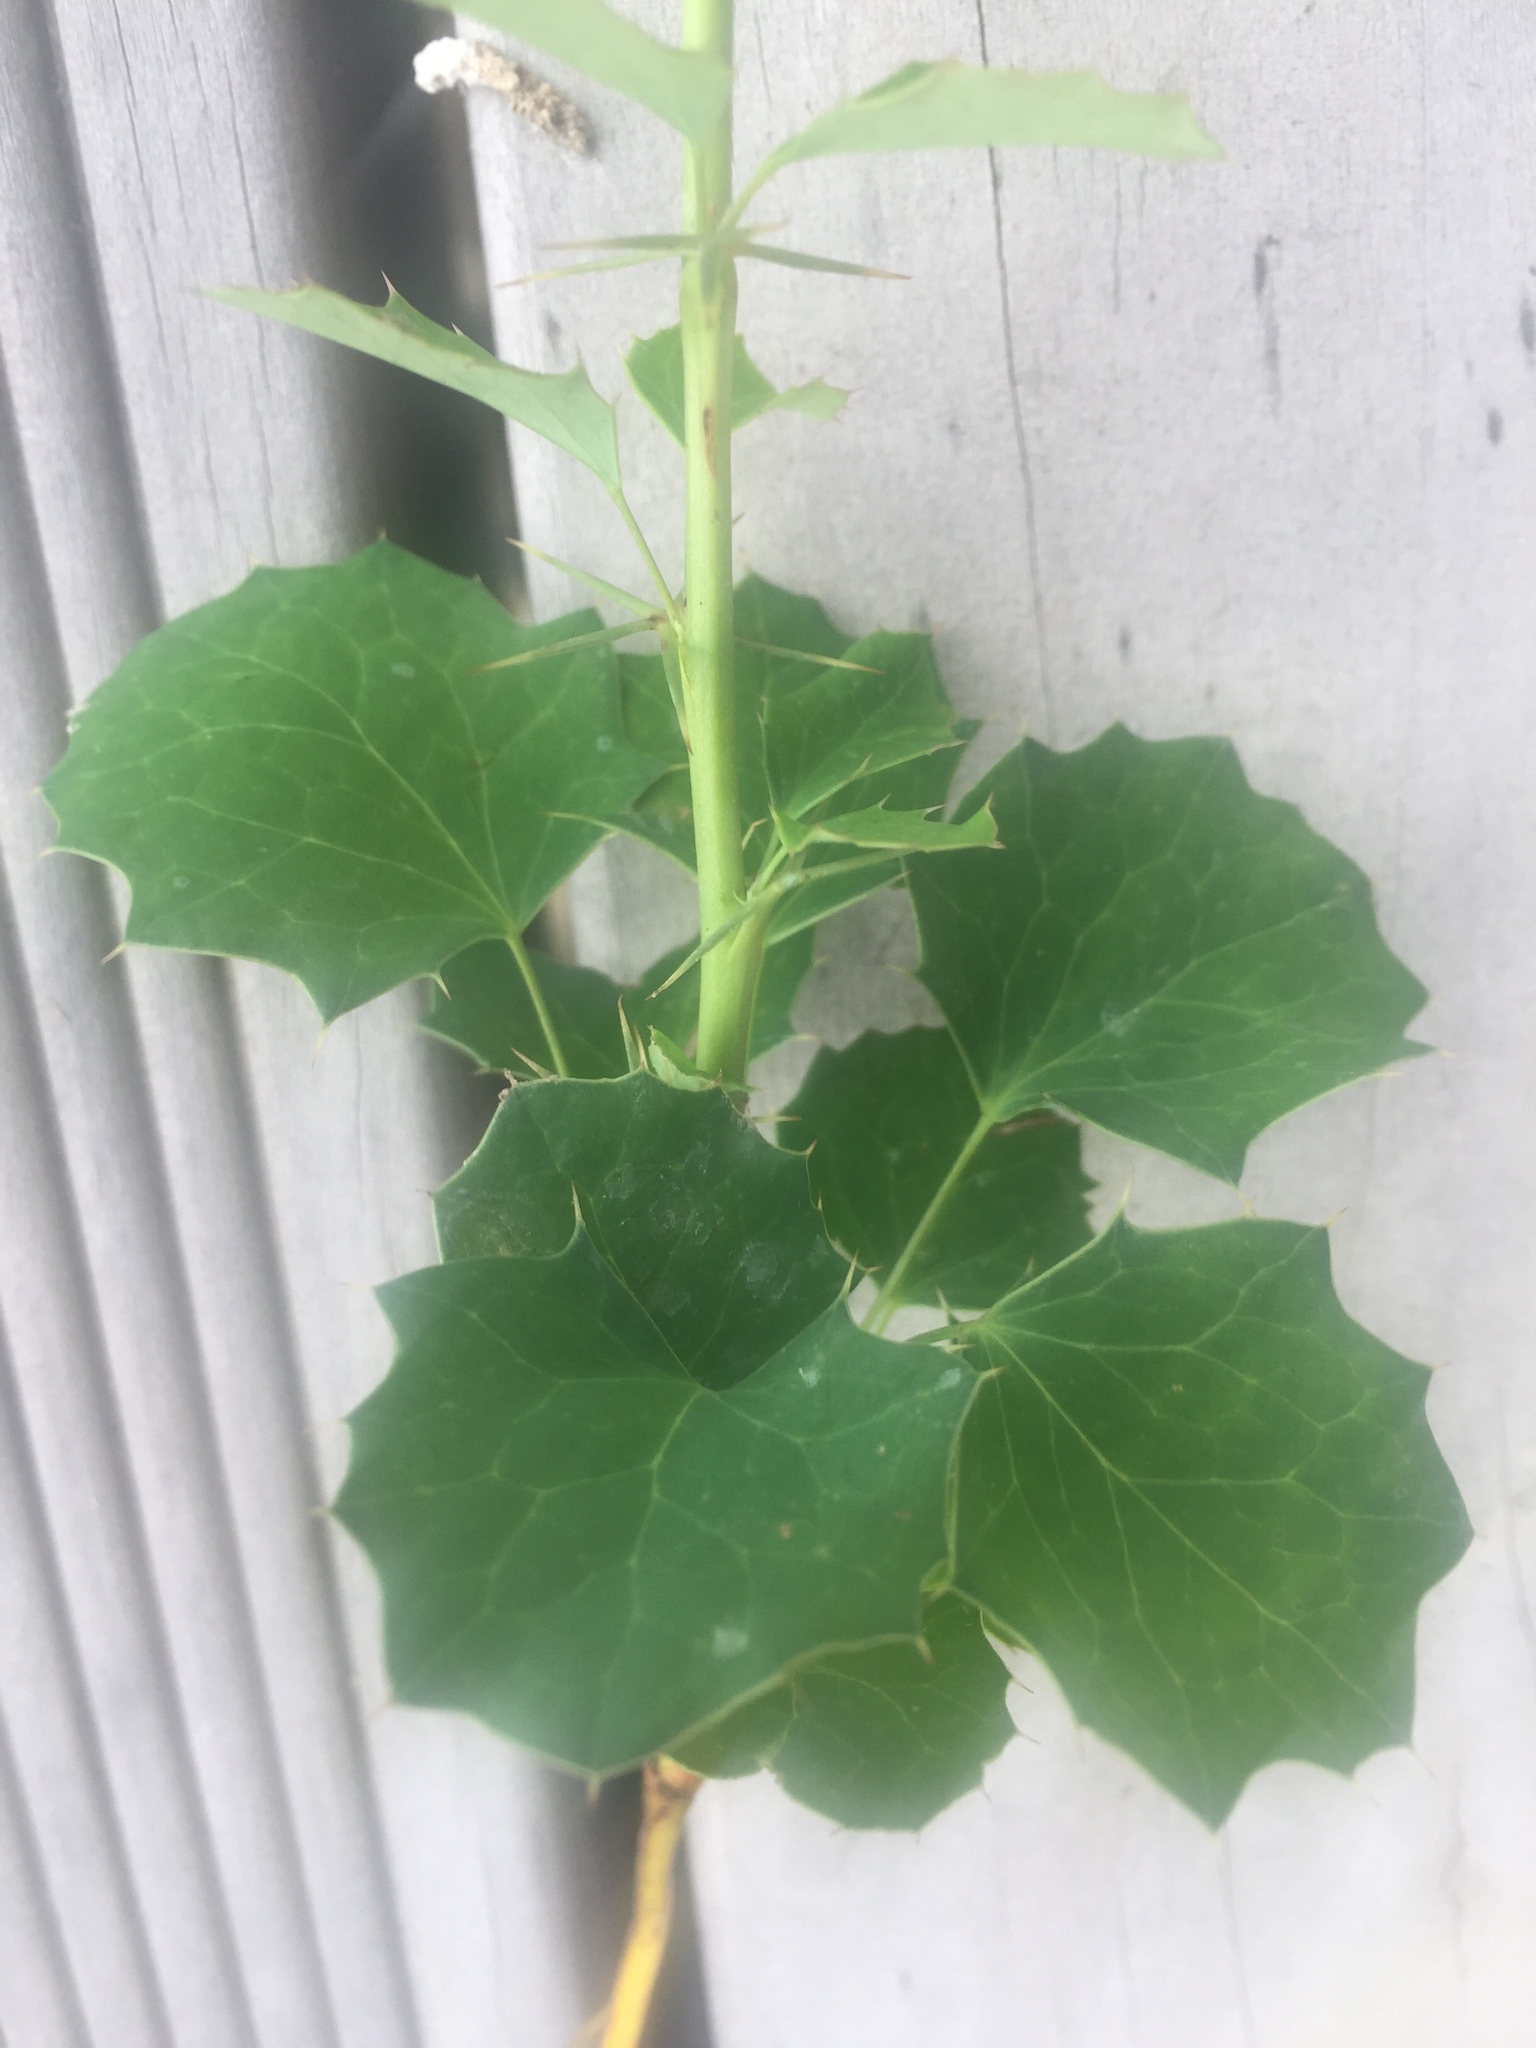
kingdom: Plantae
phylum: Tracheophyta
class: Magnoliopsida
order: Ranunculales
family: Berberidaceae
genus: Berberis
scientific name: Berberis glaucocarpa
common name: Great barberry
